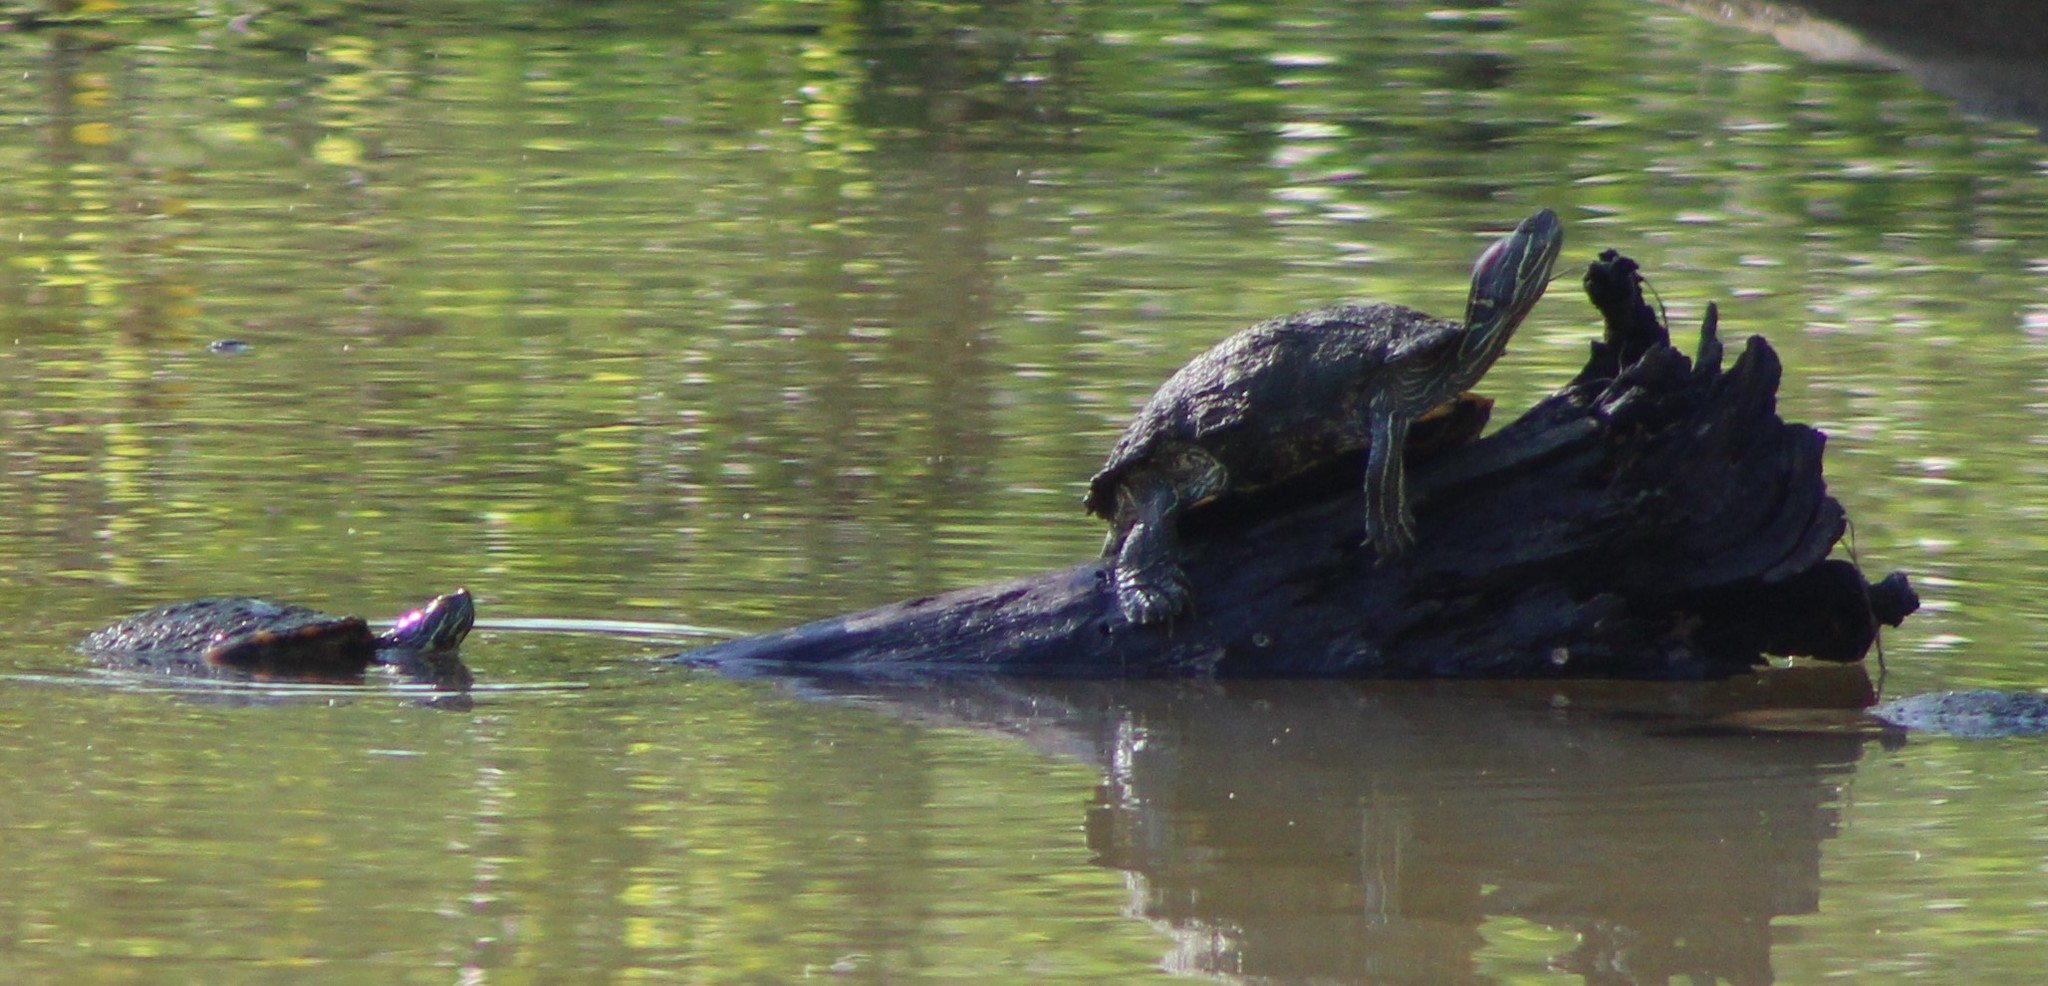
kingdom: Animalia
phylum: Chordata
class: Testudines
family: Emydidae
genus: Trachemys
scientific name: Trachemys scripta
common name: Slider
